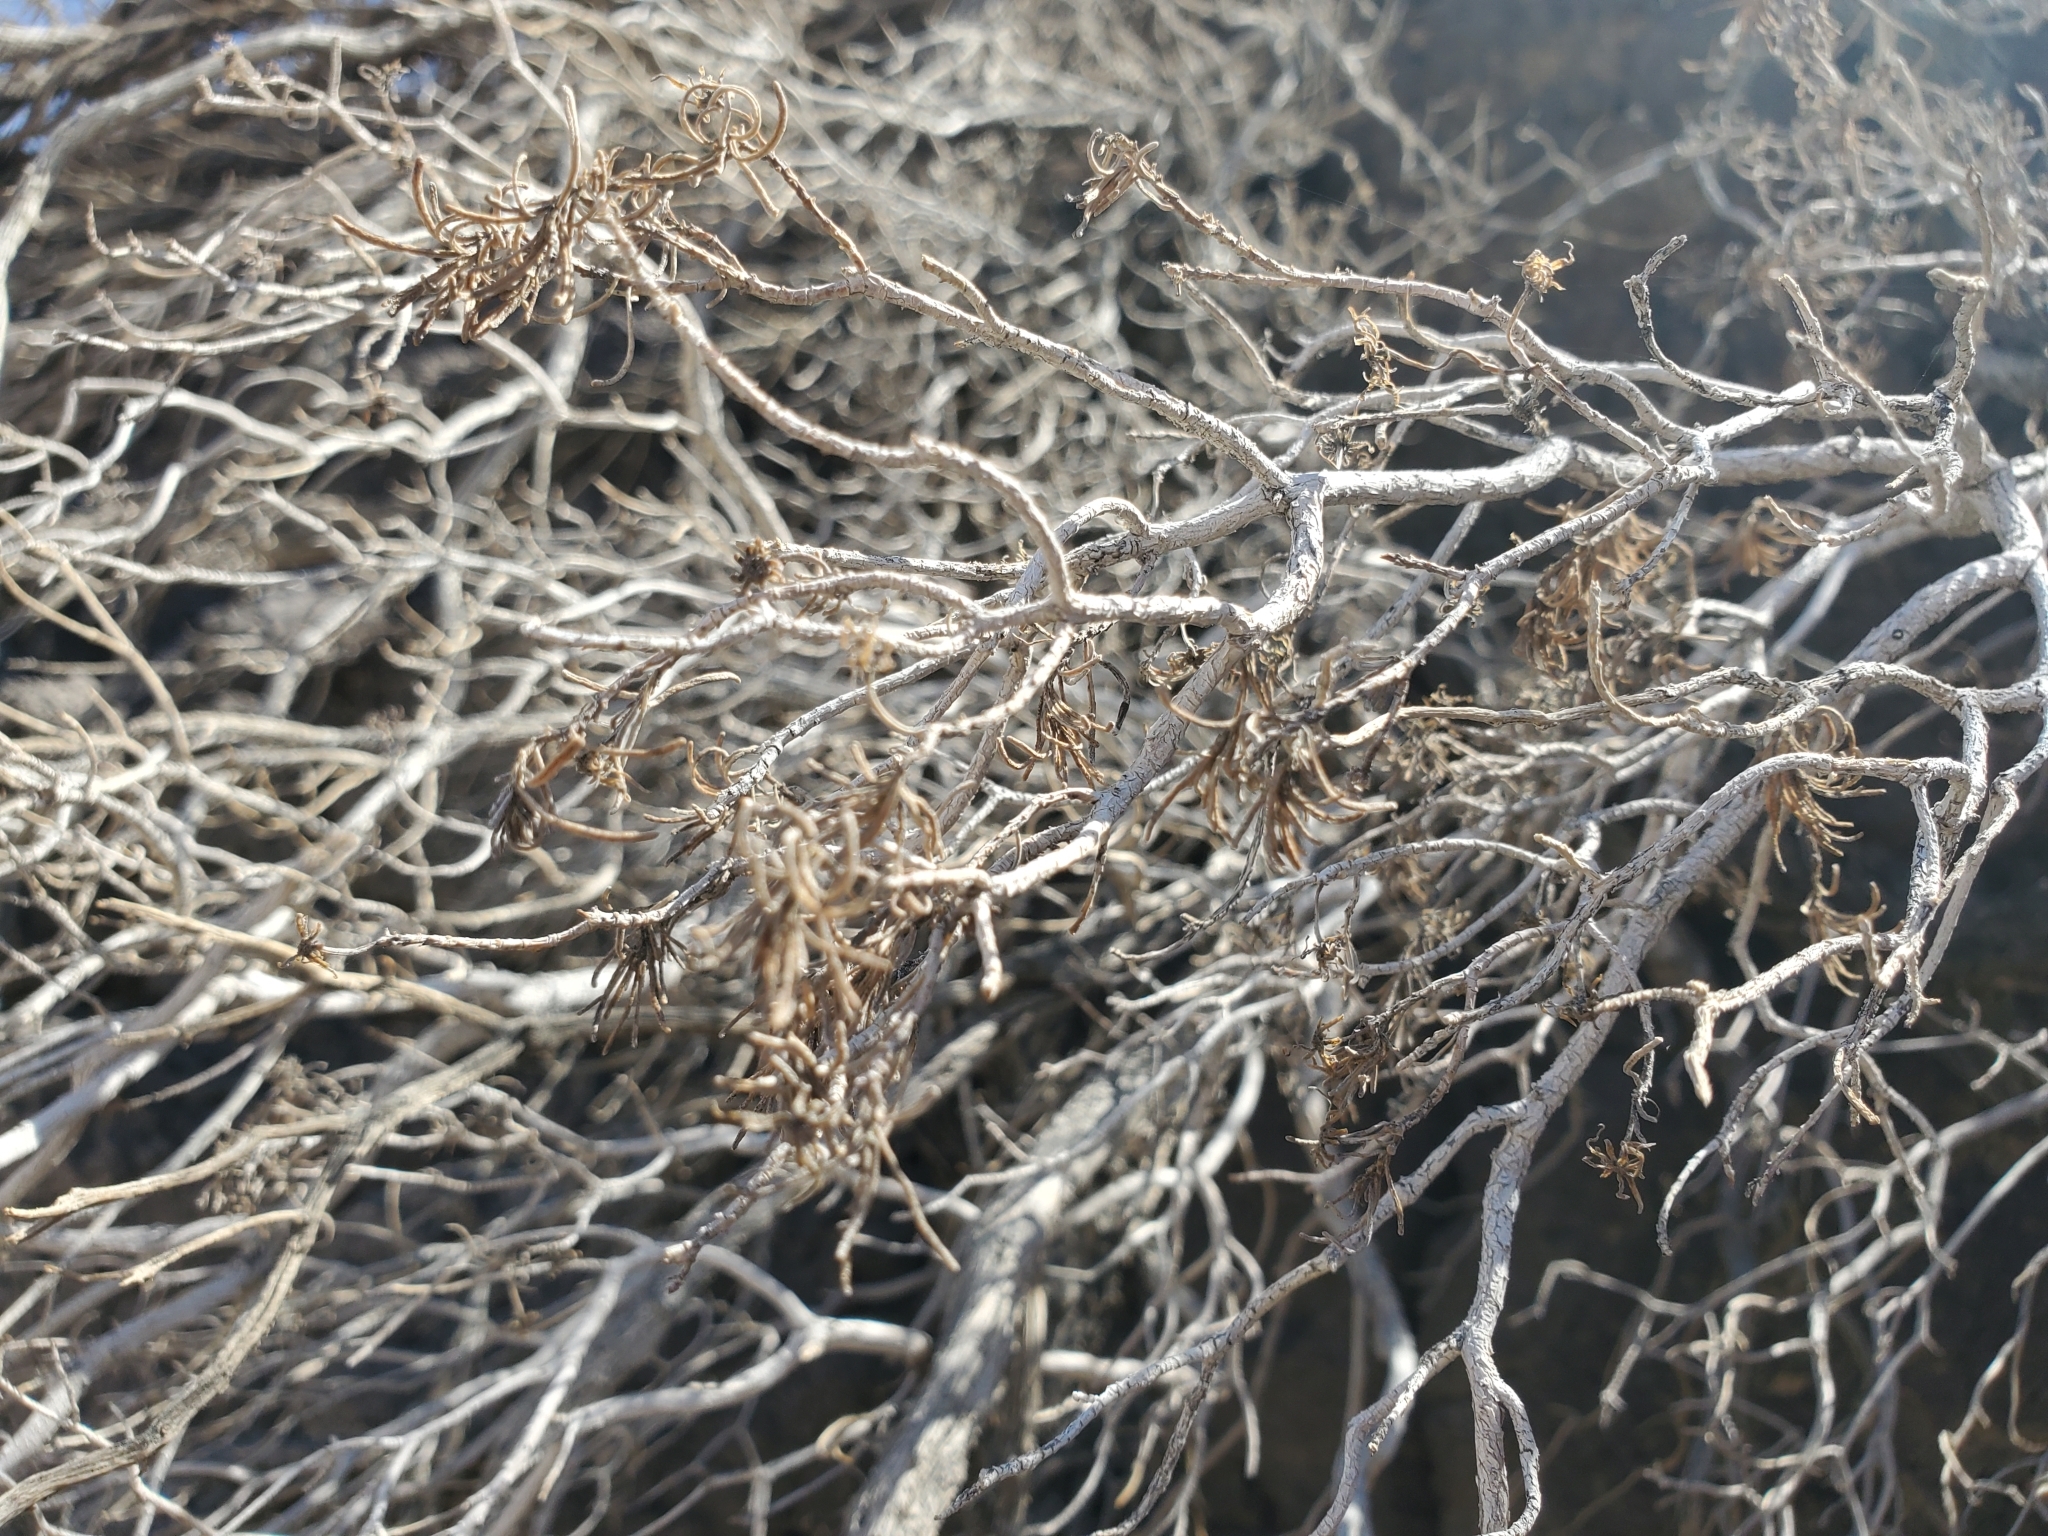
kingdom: Plantae
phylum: Tracheophyta
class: Magnoliopsida
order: Asterales
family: Asteraceae
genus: Peucephyllum
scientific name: Peucephyllum schottii
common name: Pygmy-cedar
